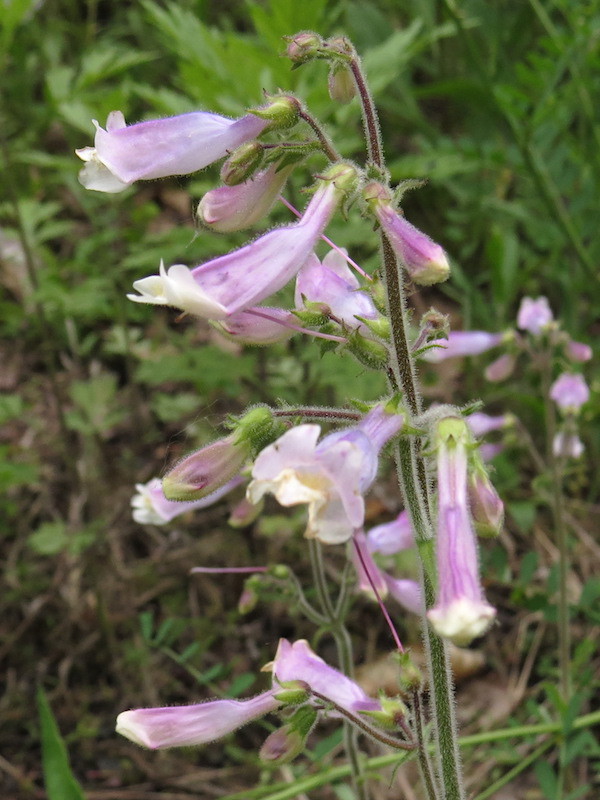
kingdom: Plantae
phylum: Tracheophyta
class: Magnoliopsida
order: Lamiales
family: Plantaginaceae
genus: Penstemon
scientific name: Penstemon hirsutus
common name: Hairy beardtongue
